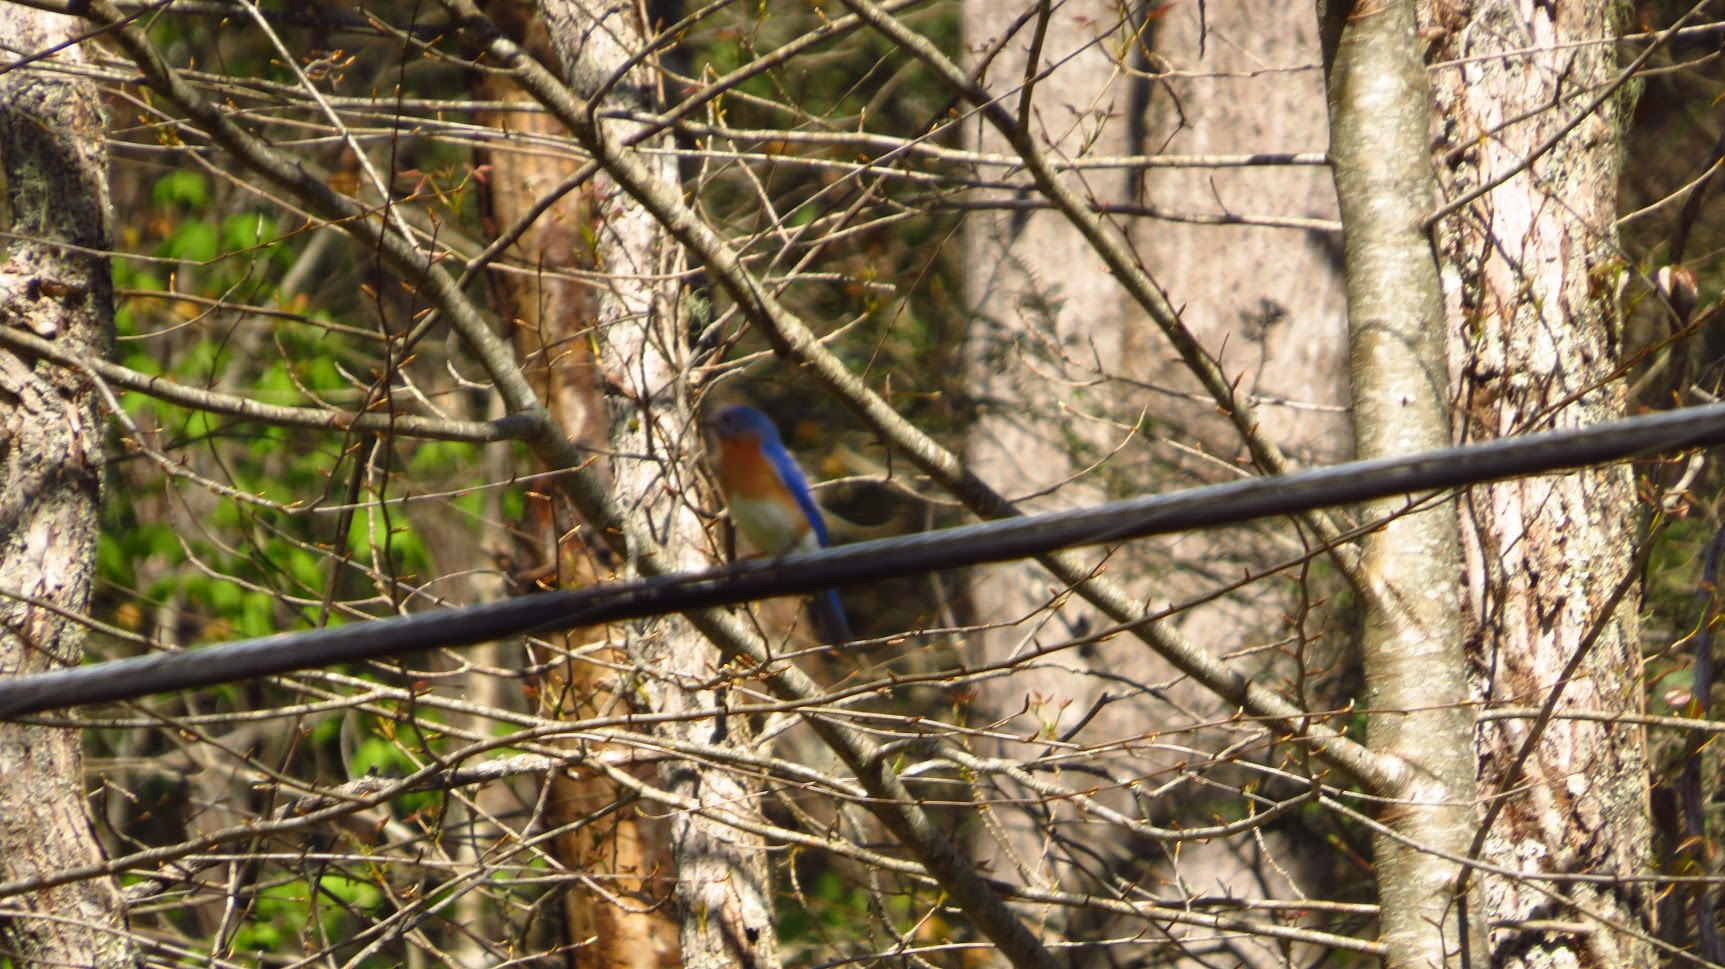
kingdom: Animalia
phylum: Chordata
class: Aves
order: Passeriformes
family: Turdidae
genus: Sialia
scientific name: Sialia sialis
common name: Eastern bluebird
